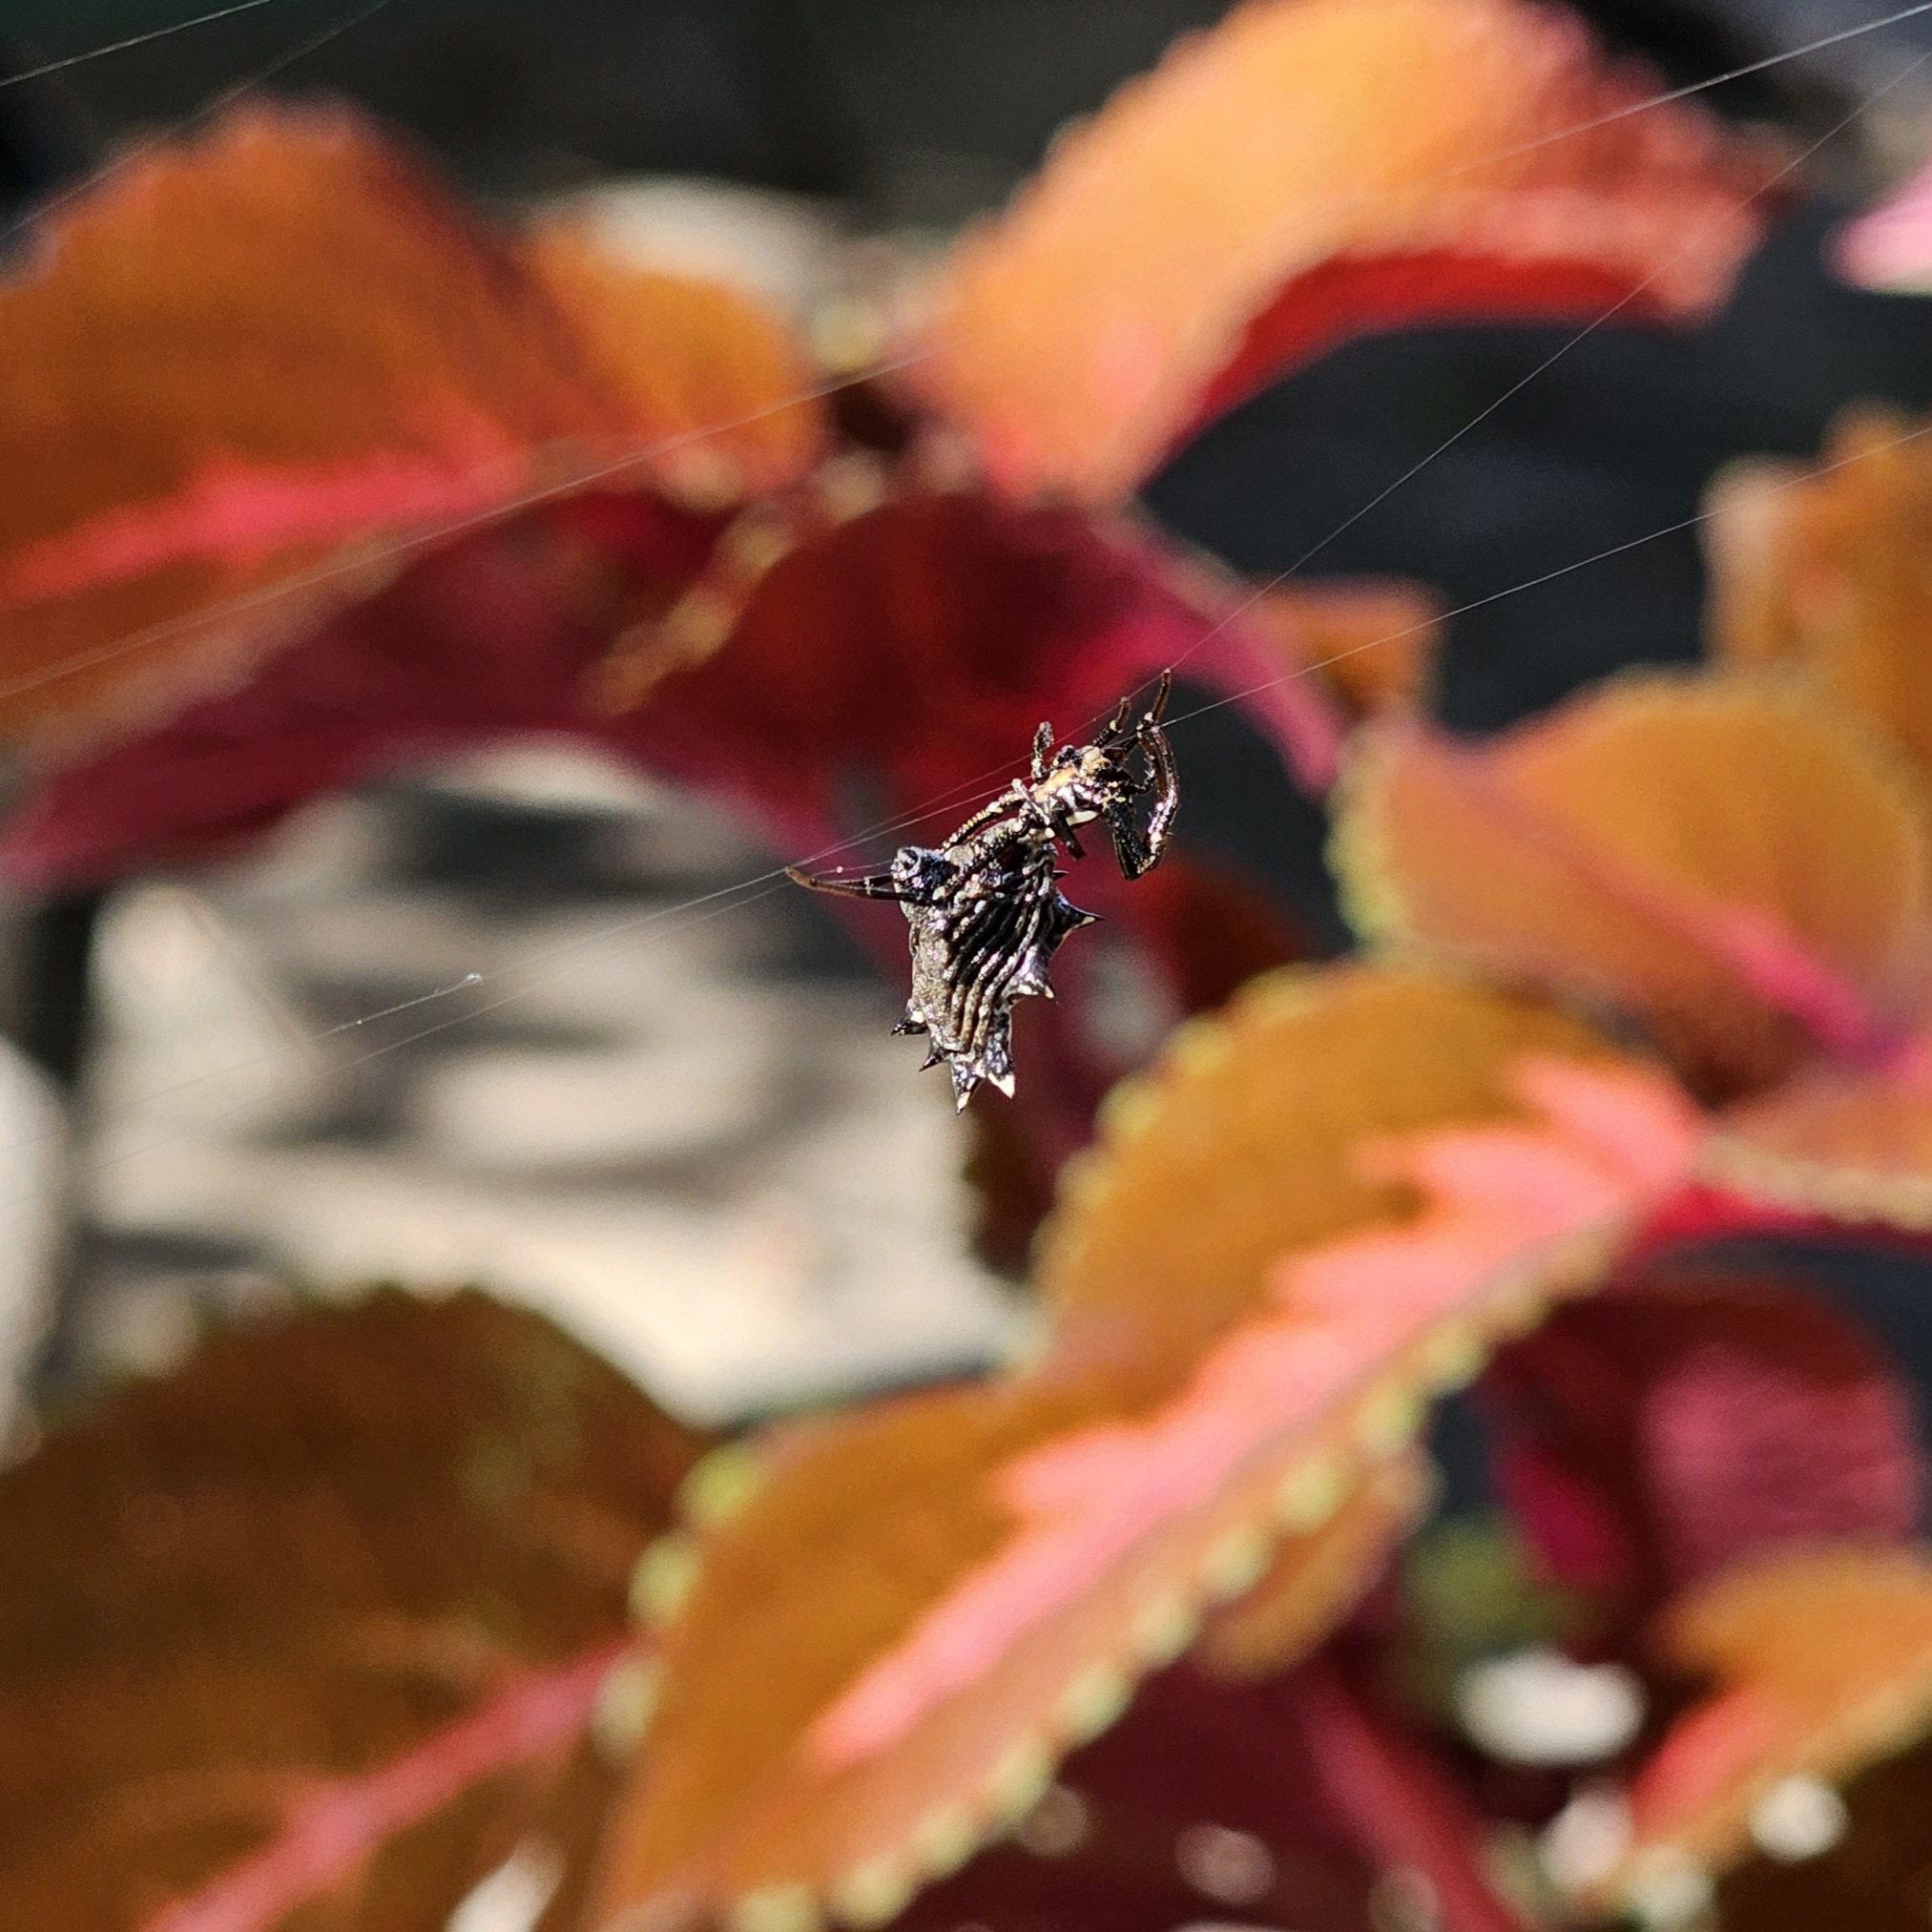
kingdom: Animalia
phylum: Arthropoda
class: Arachnida
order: Araneae
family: Araneidae
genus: Micrathena
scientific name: Micrathena gracilis
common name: Orb weavers
